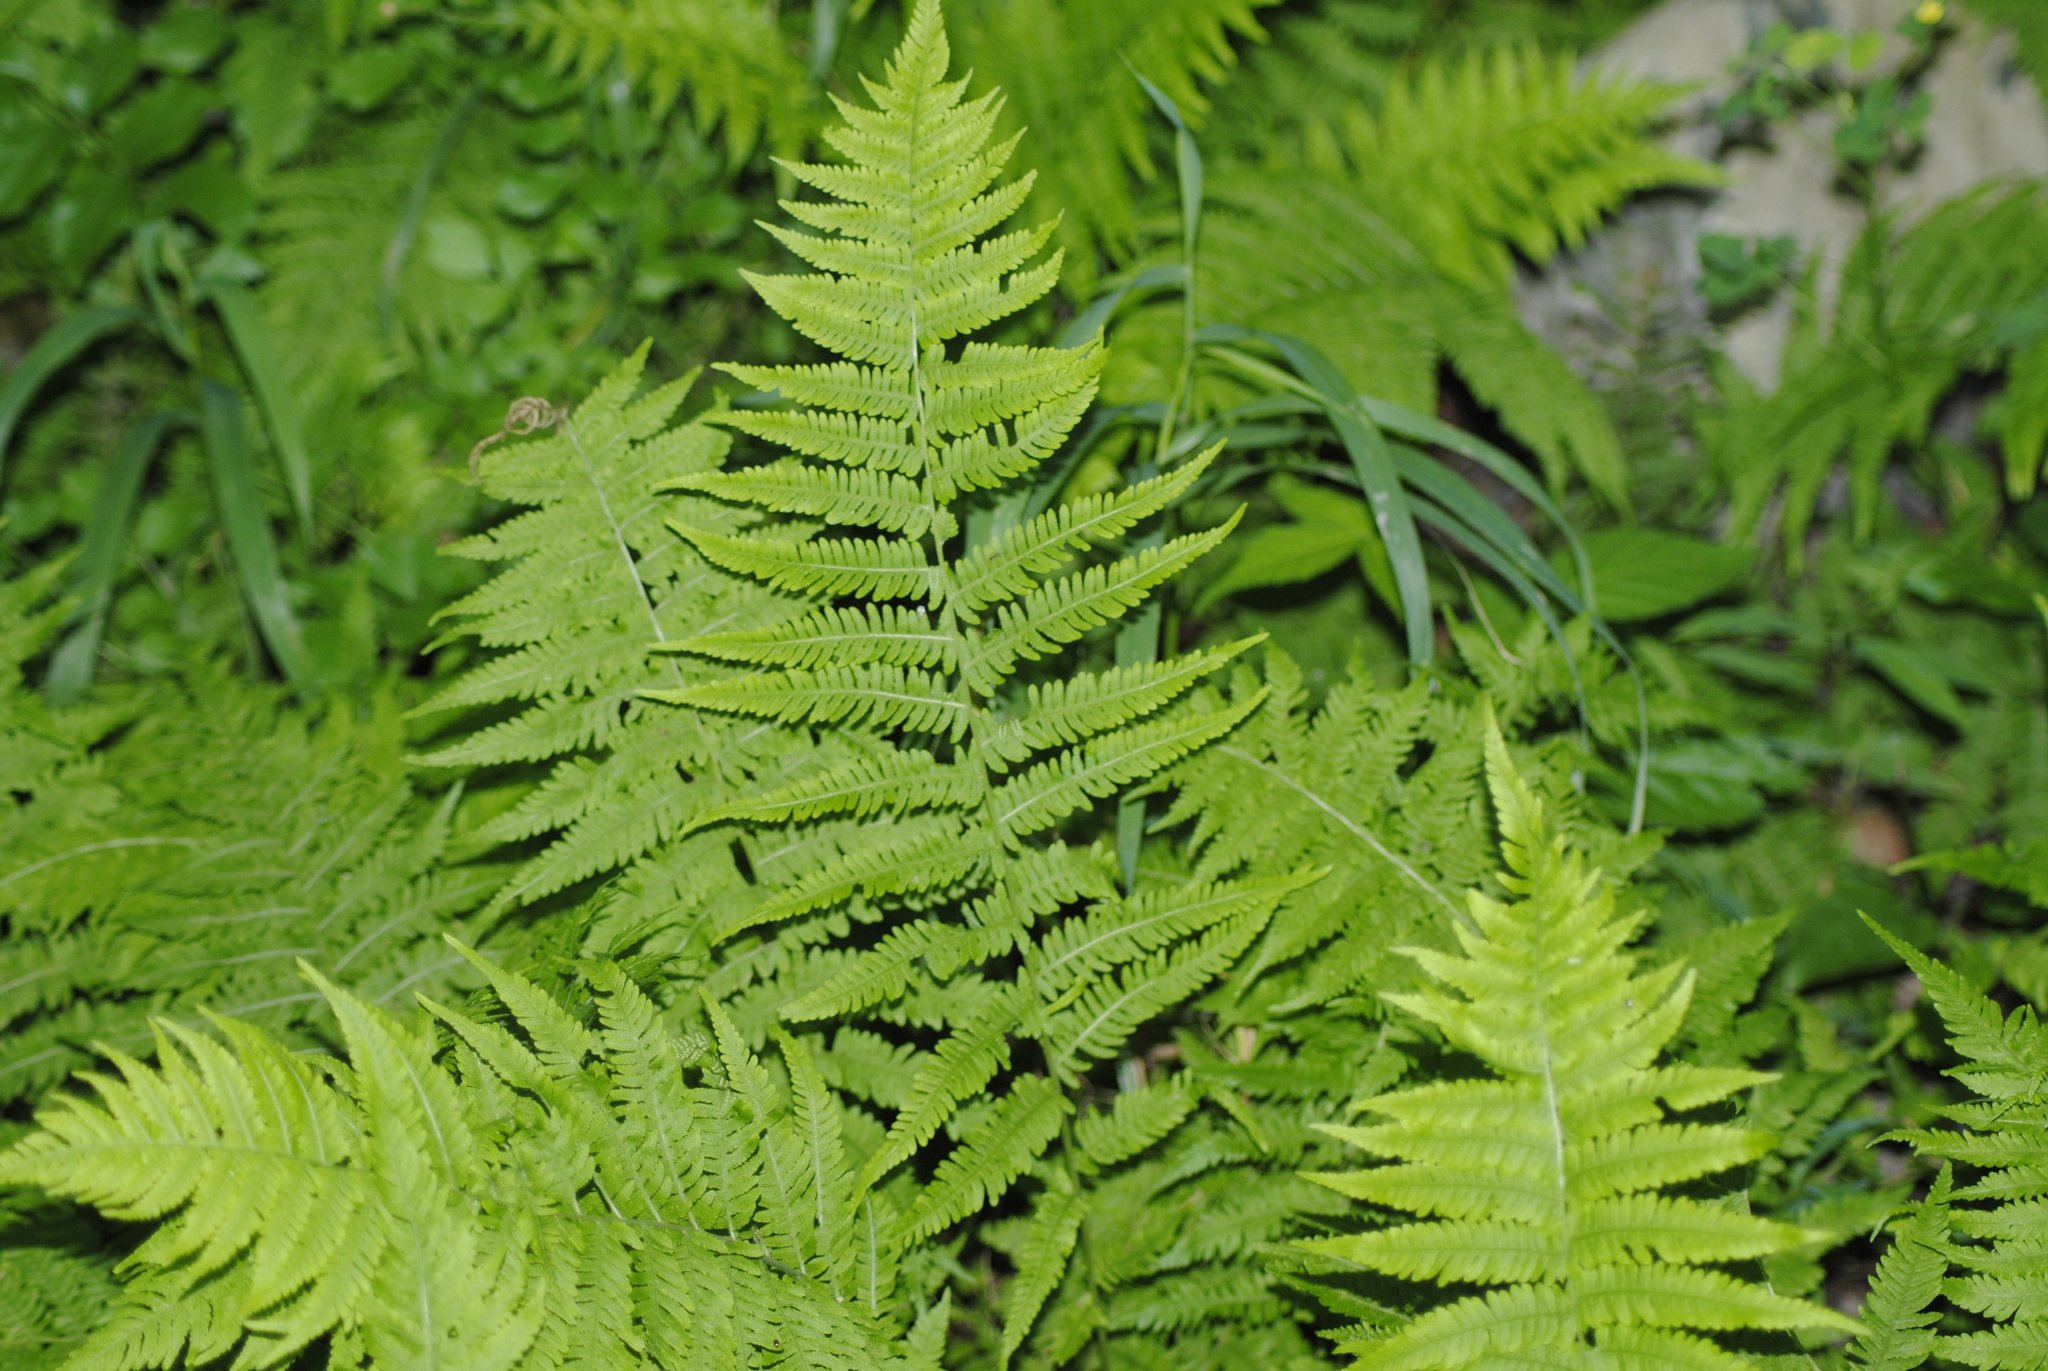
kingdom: Plantae
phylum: Tracheophyta
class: Polypodiopsida
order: Polypodiales
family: Thelypteridaceae
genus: Amauropelta
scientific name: Amauropelta noveboracensis
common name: New york fern
